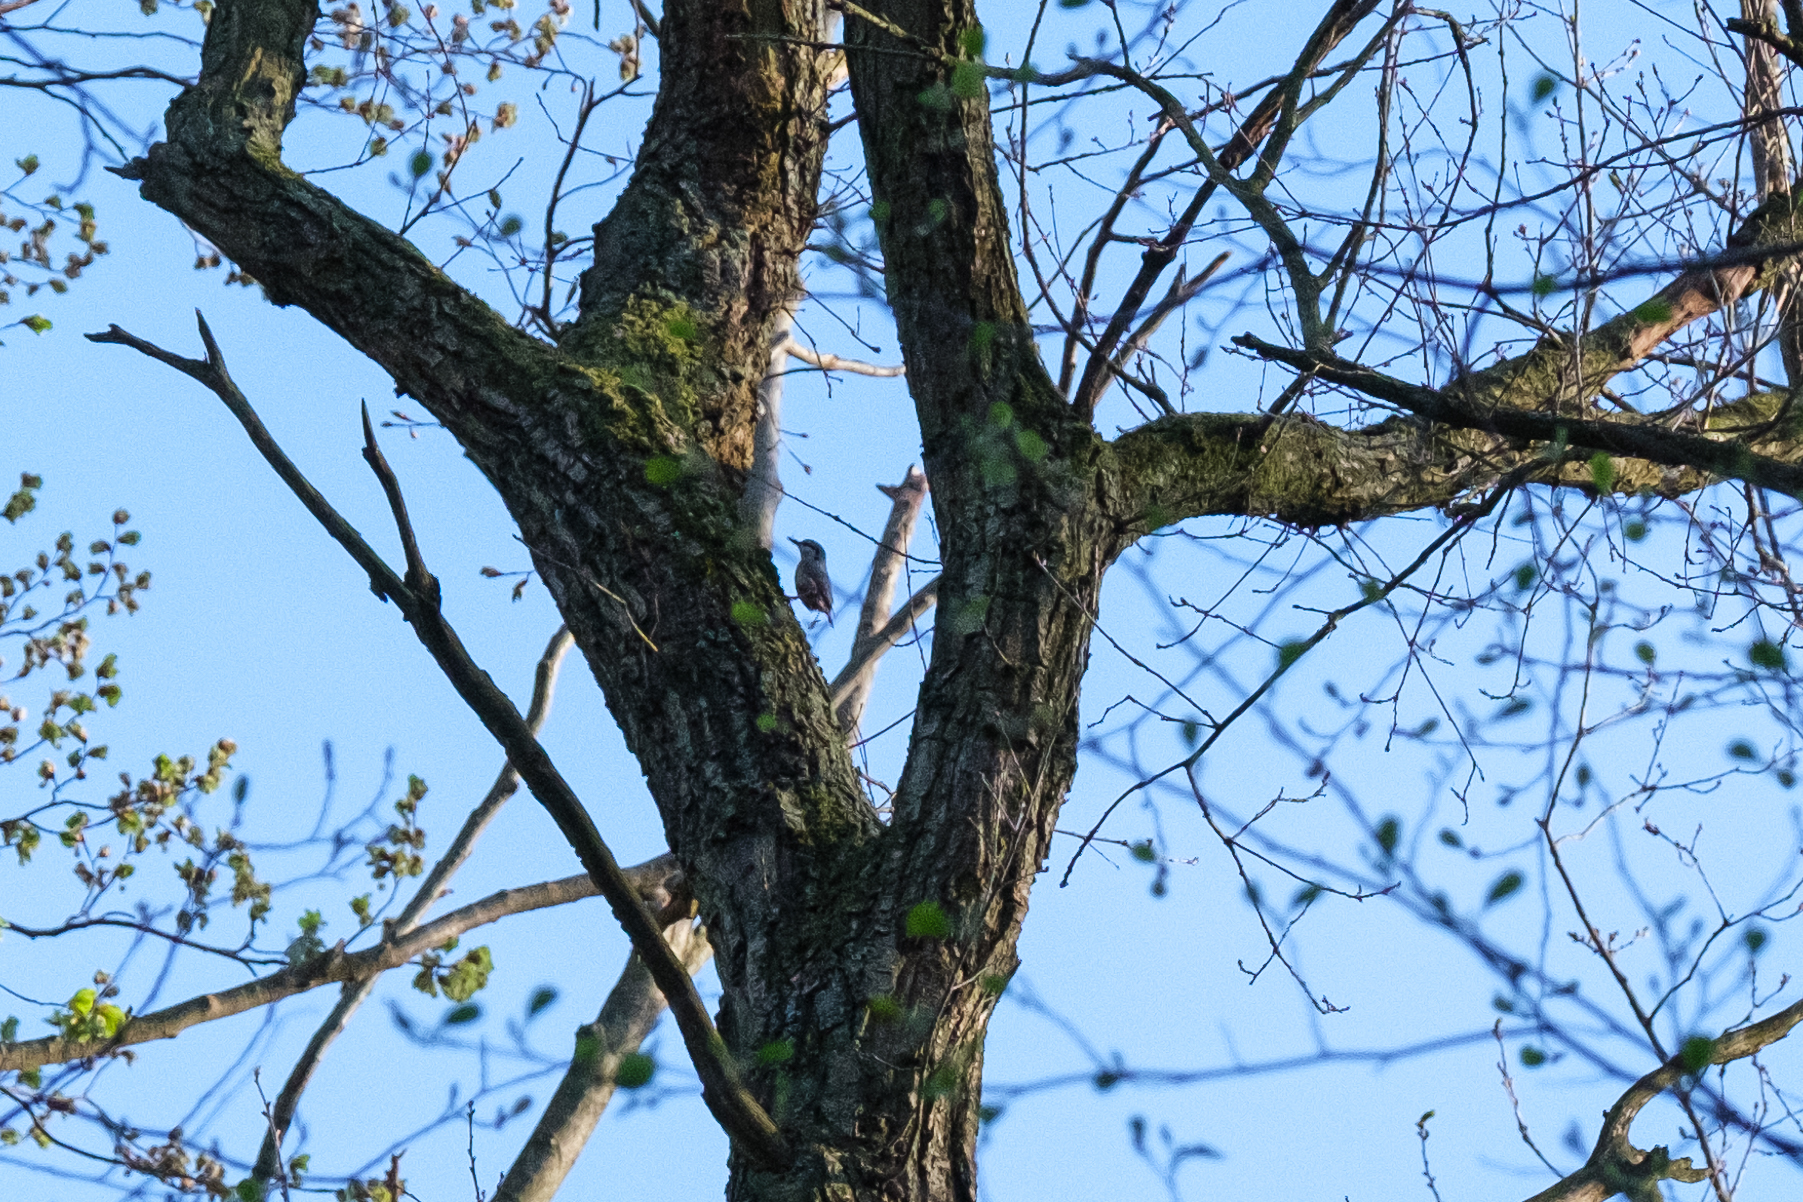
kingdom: Animalia
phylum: Chordata
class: Aves
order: Passeriformes
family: Sittidae
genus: Sitta
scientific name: Sitta europaea
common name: Eurasian nuthatch
